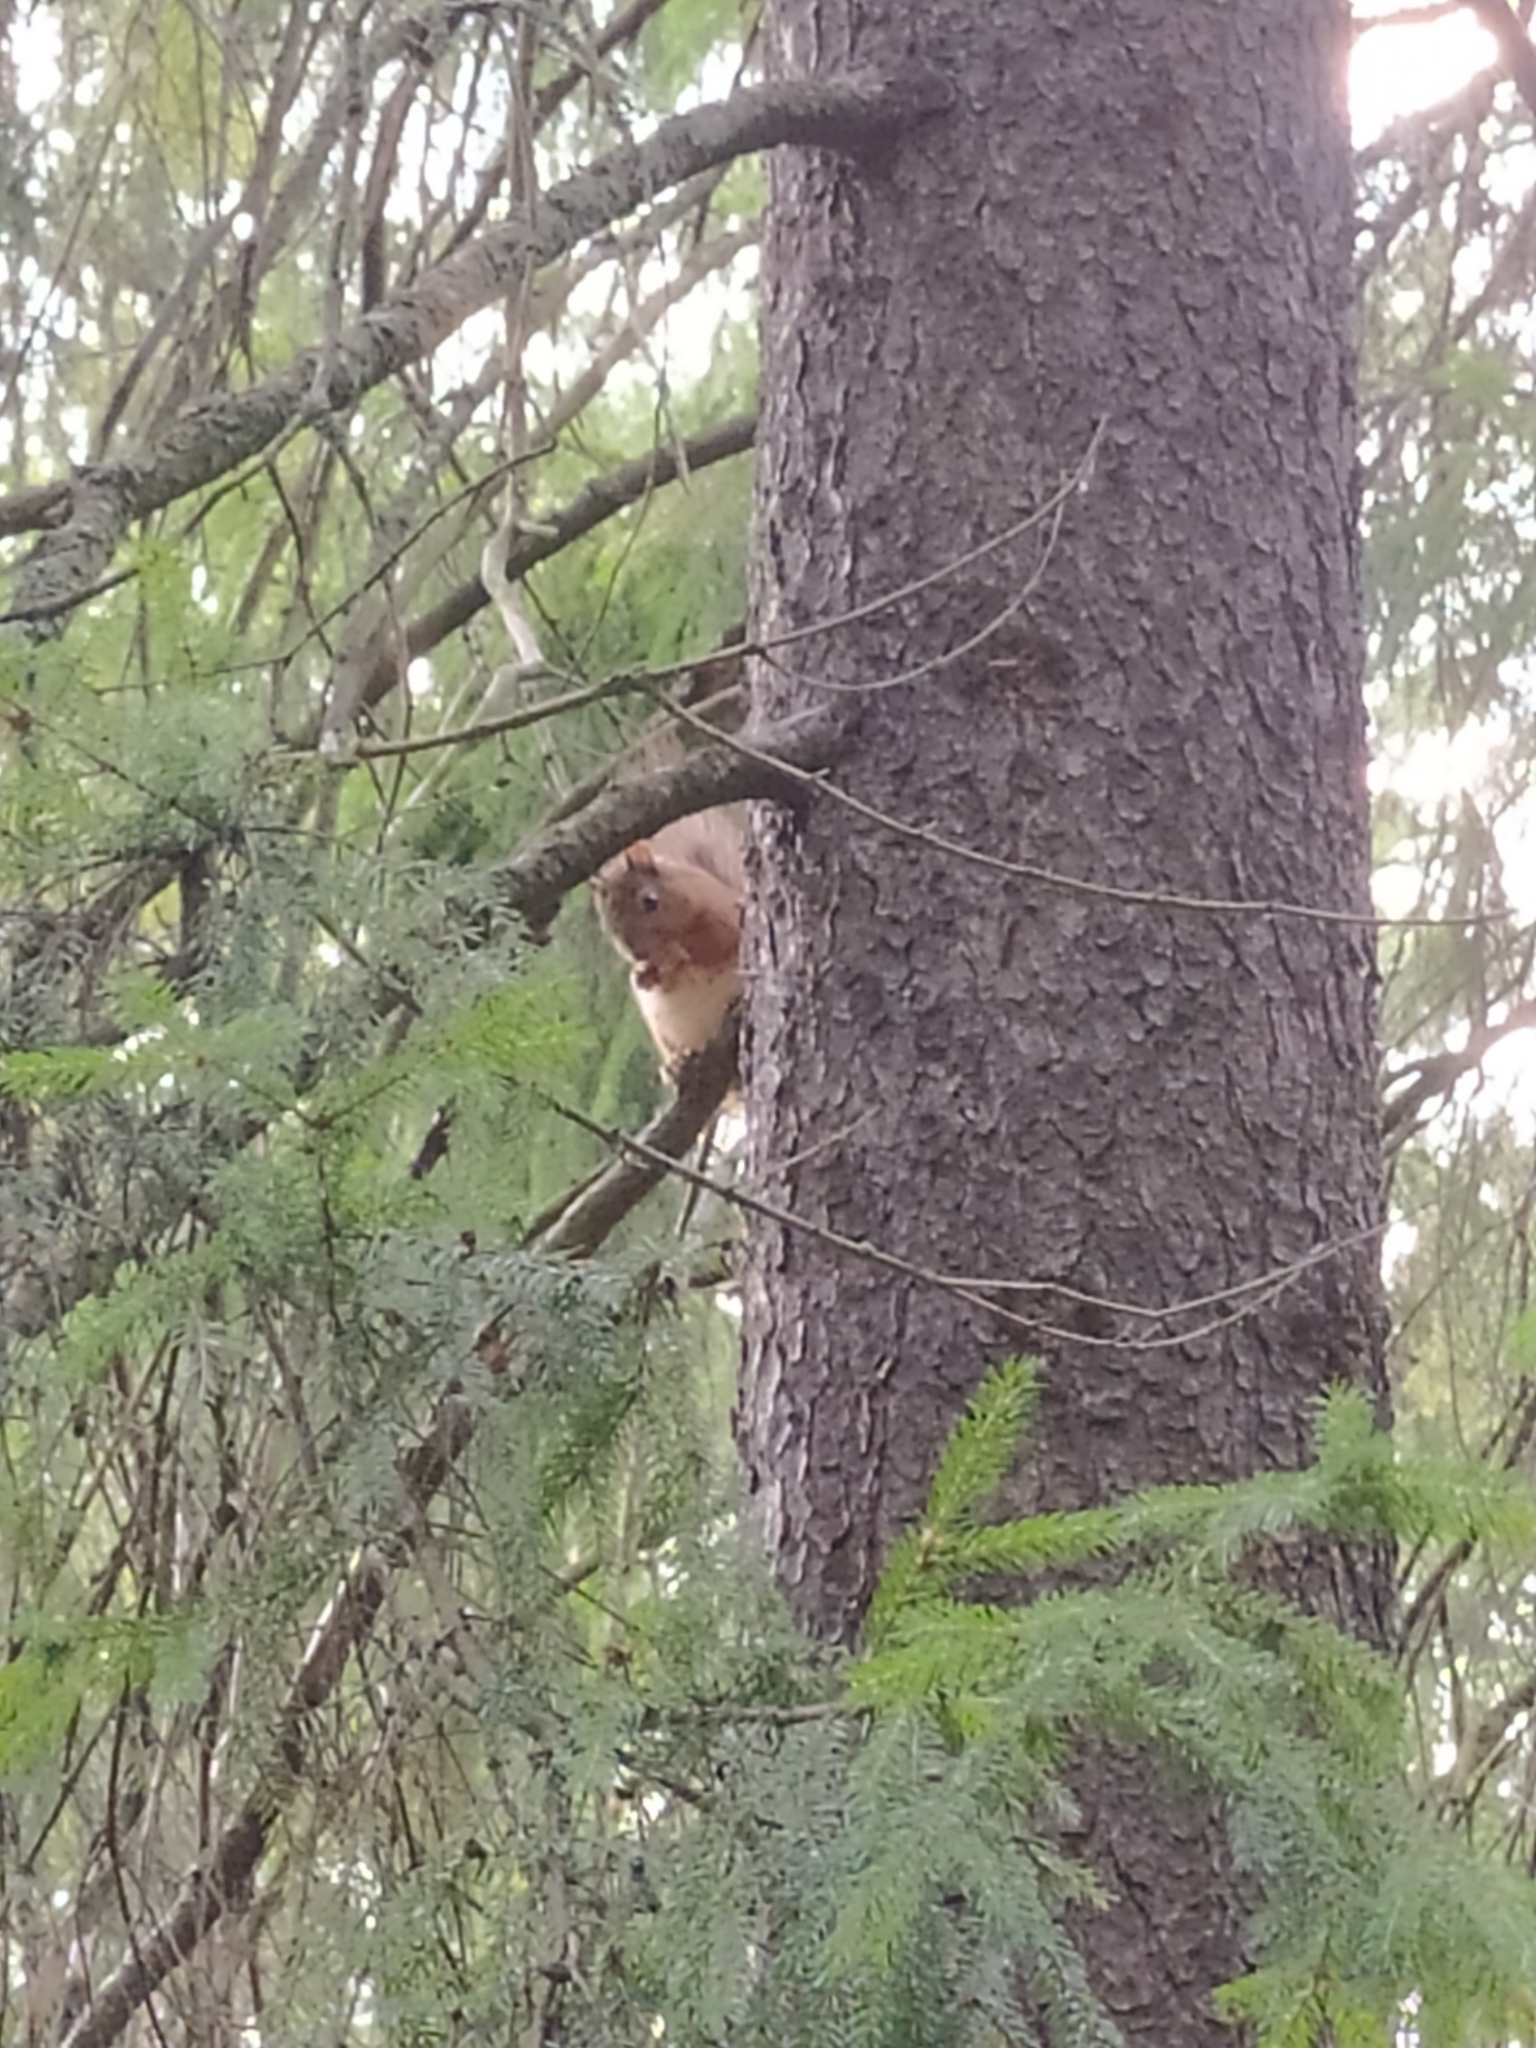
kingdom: Animalia
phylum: Chordata
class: Mammalia
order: Rodentia
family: Sciuridae
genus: Sciurus
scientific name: Sciurus vulgaris
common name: Eurasian red squirrel
